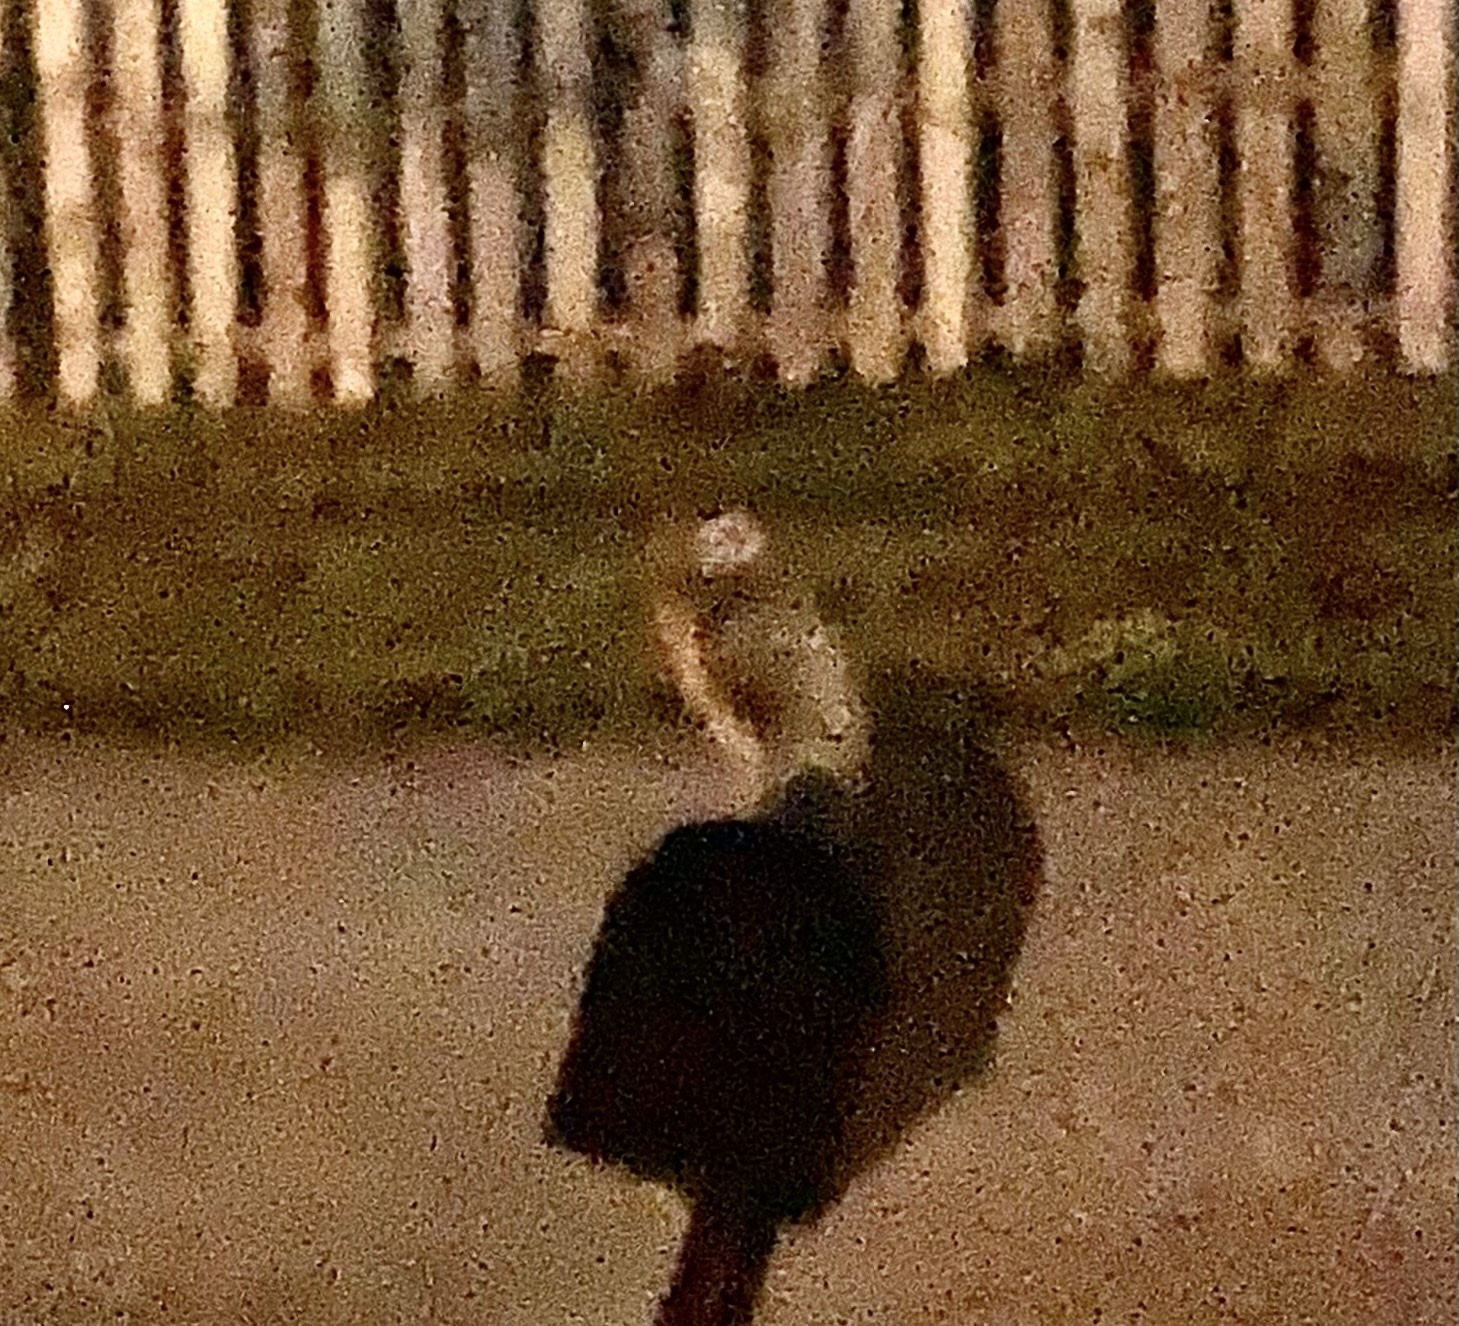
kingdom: Animalia
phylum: Chordata
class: Aves
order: Strigiformes
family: Strigidae
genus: Athene
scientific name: Athene cunicularia
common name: Burrowing owl
